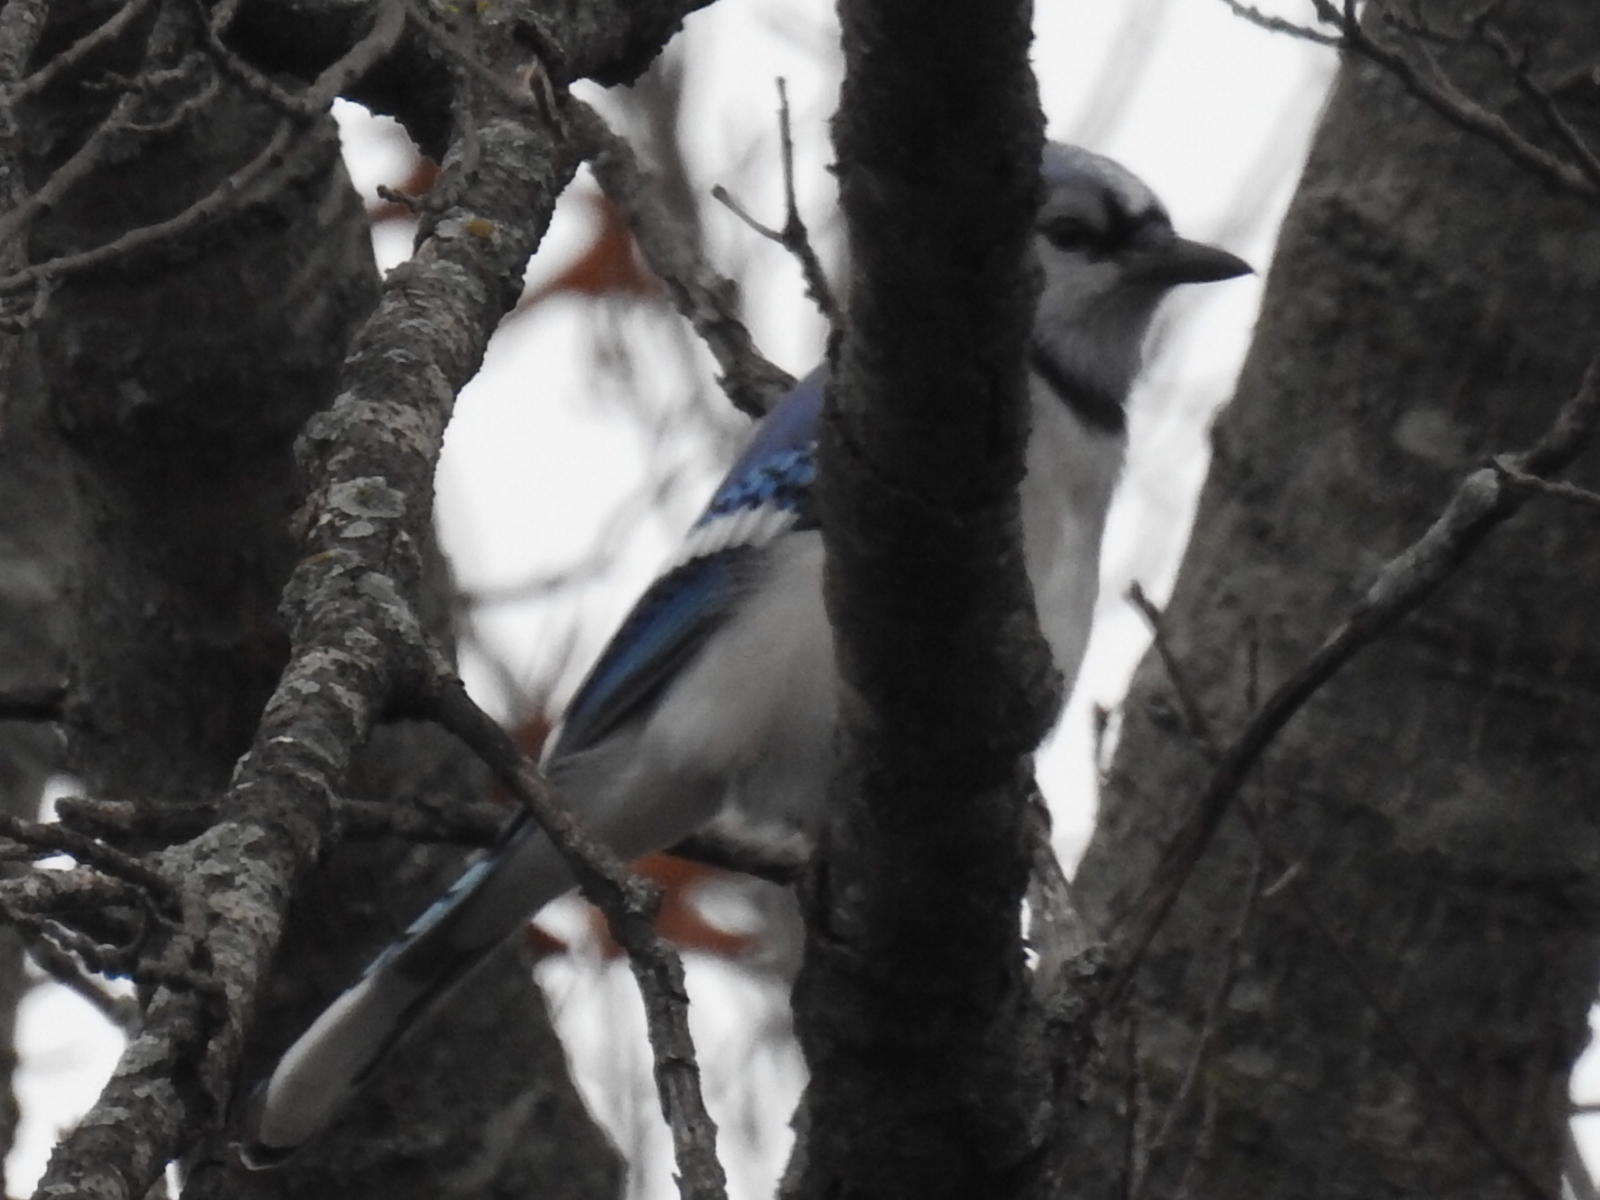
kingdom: Animalia
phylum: Chordata
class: Aves
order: Passeriformes
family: Corvidae
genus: Cyanocitta
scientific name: Cyanocitta cristata
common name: Blue jay
